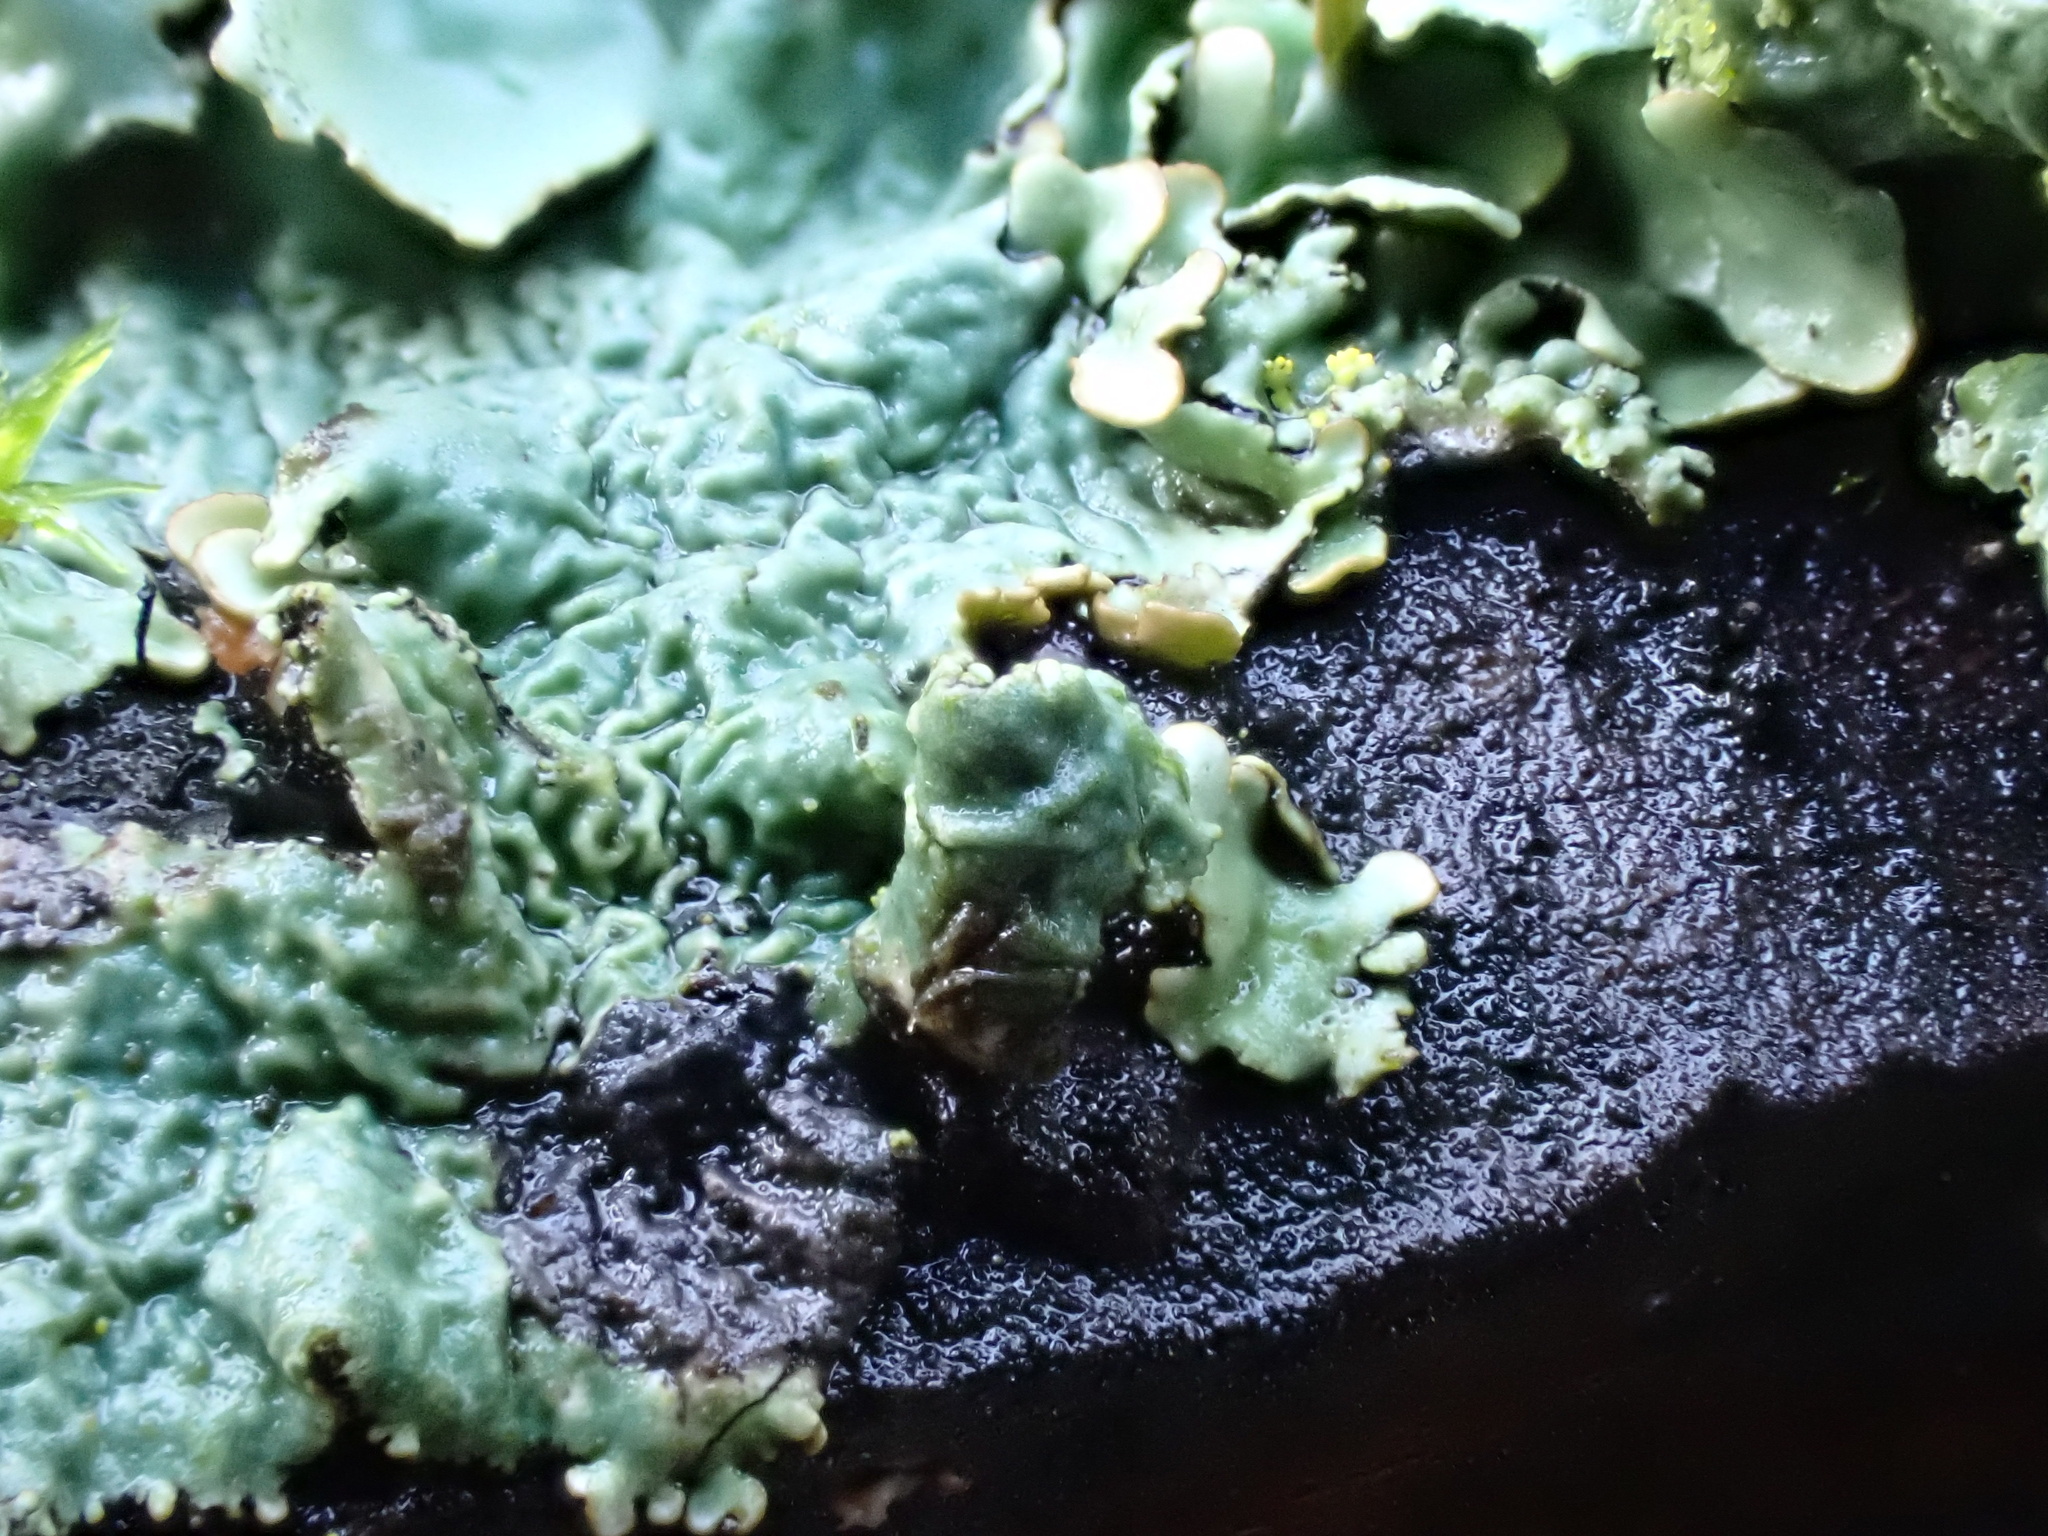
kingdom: Fungi
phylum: Ascomycota
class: Lecanoromycetes
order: Lecanorales
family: Parmeliaceae
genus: Parmotrema
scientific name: Parmotrema perlatum
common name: Black stone flower
